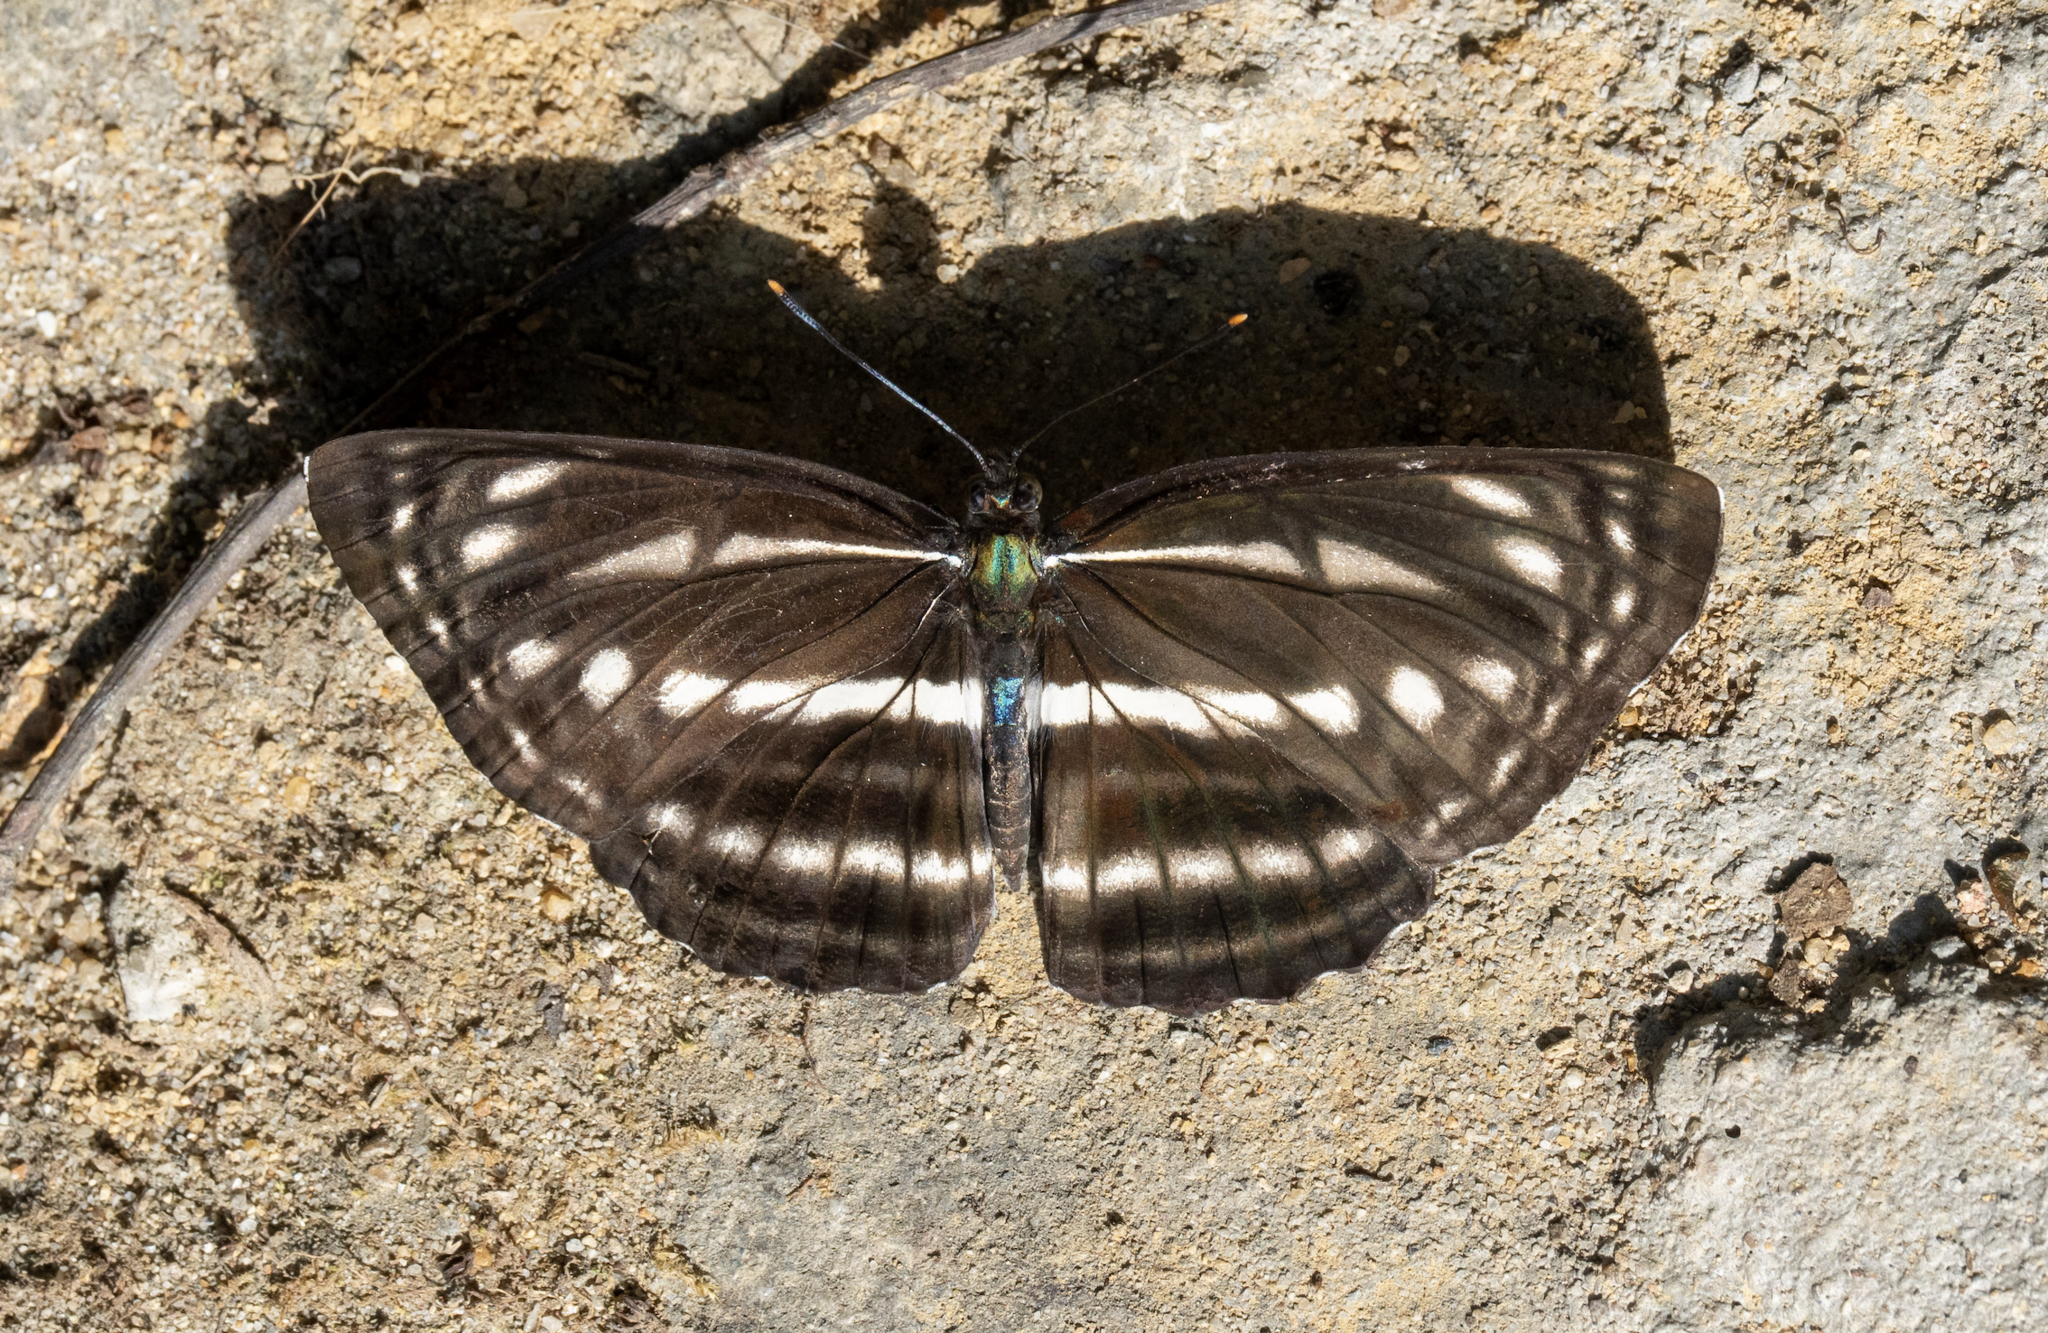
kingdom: Animalia
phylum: Arthropoda
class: Insecta
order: Lepidoptera
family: Nymphalidae
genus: Neptis
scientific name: Neptis nata
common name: Sullied brown sailer
